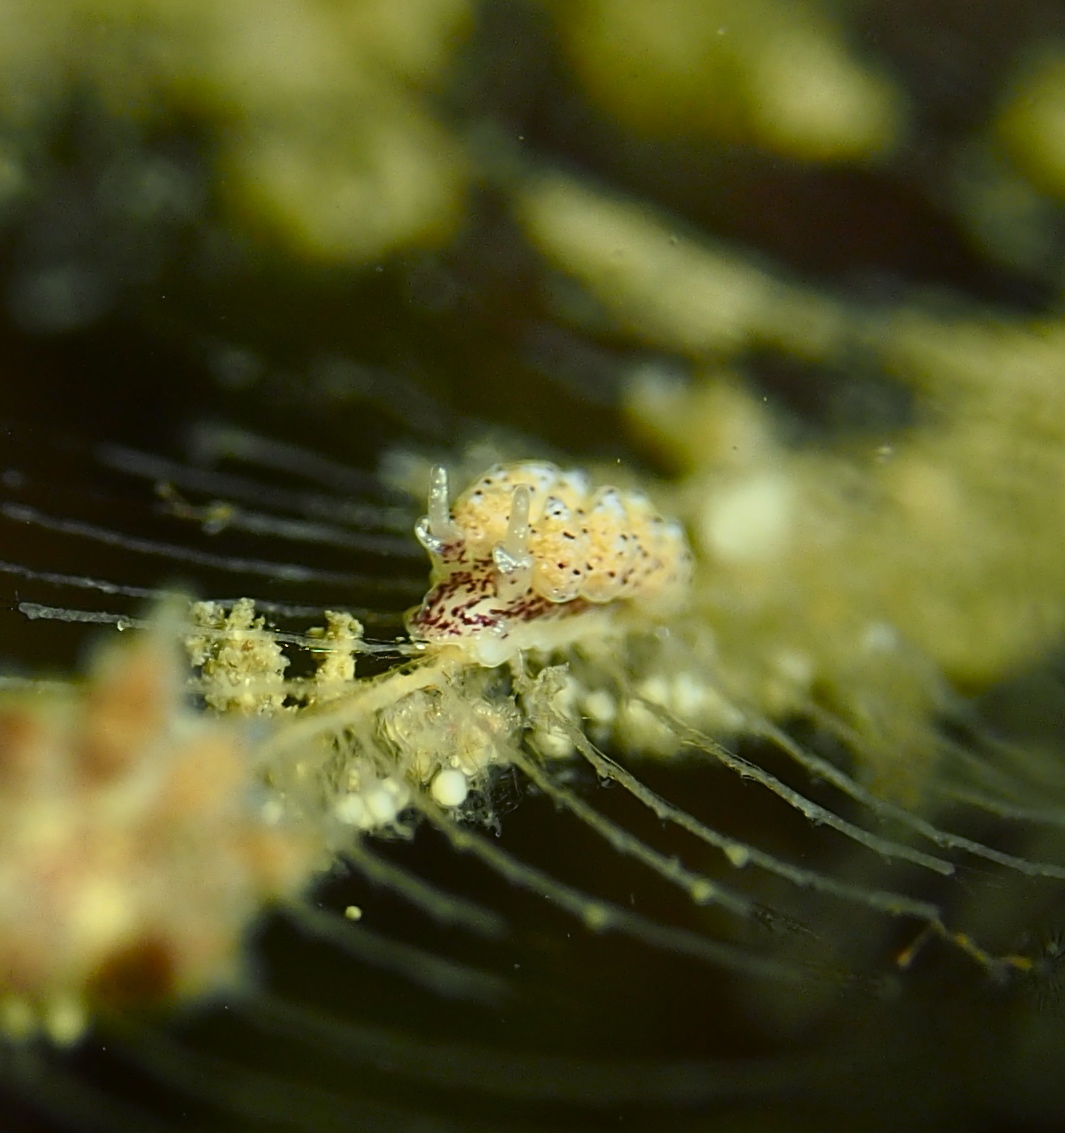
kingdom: Animalia
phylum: Mollusca
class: Gastropoda
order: Nudibranchia
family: Dotidae
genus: Doto
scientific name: Doto dunnei
